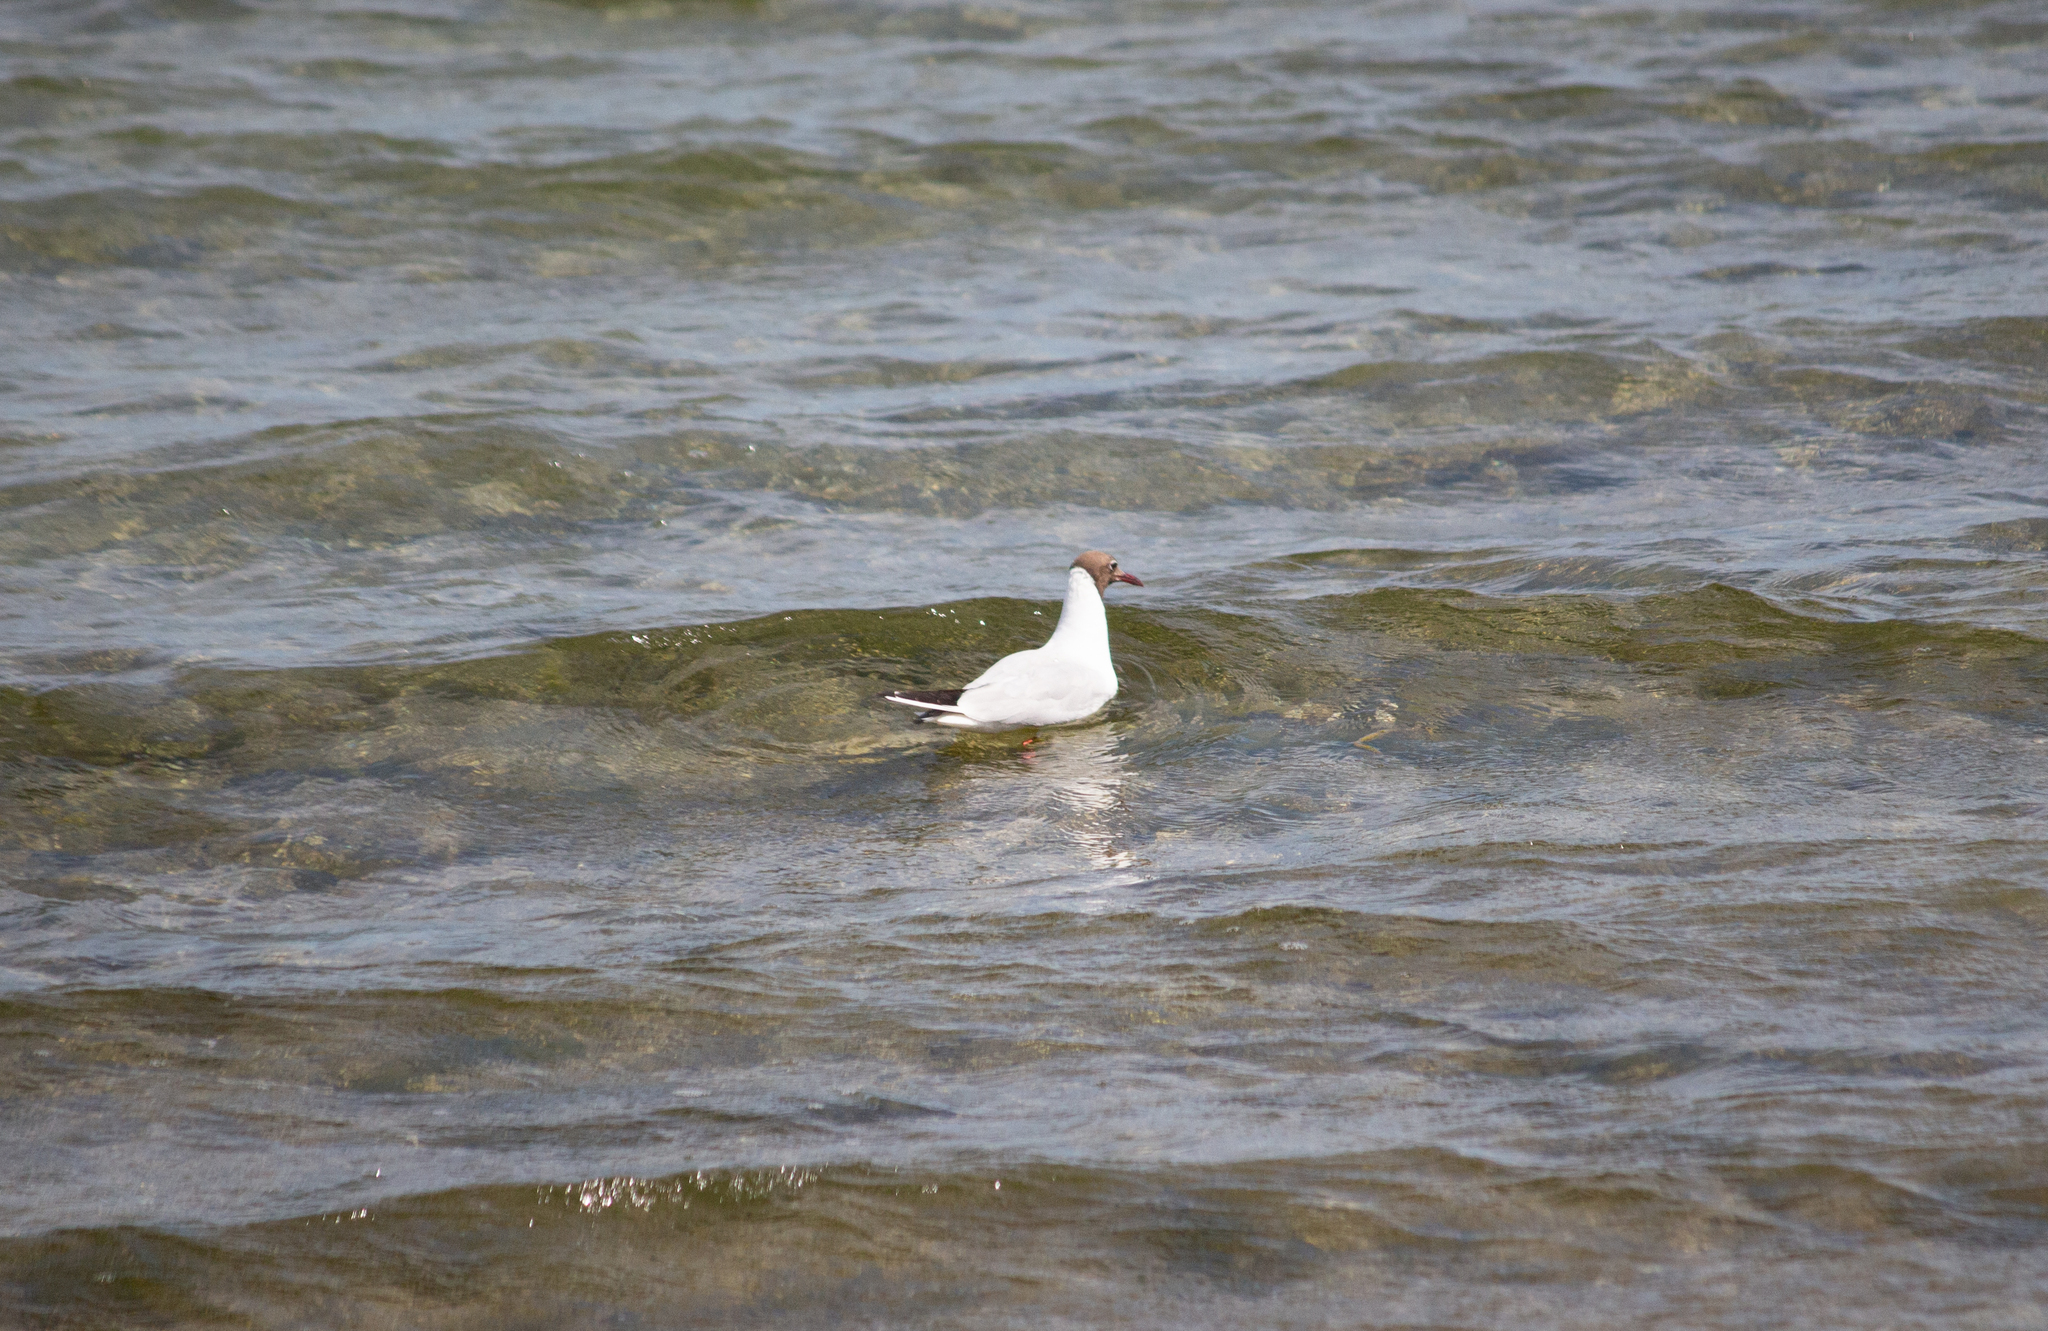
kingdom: Animalia
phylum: Chordata
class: Aves
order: Charadriiformes
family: Laridae
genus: Chroicocephalus
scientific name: Chroicocephalus ridibundus
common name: Black-headed gull
